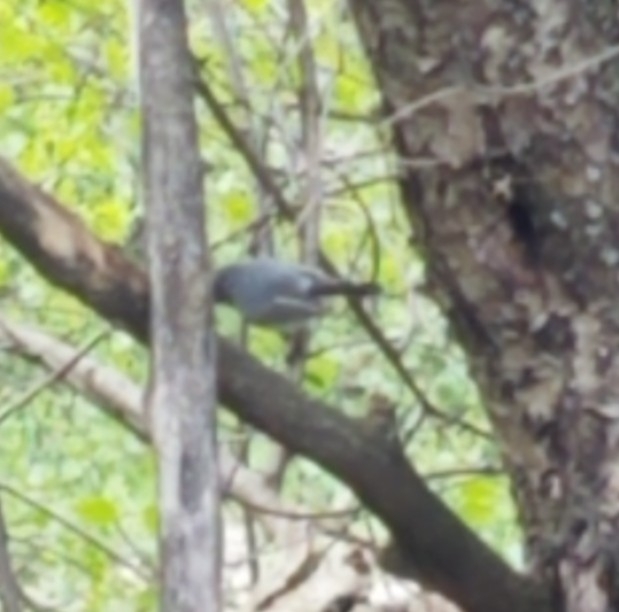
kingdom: Animalia
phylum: Chordata
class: Aves
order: Passeriformes
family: Polioptilidae
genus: Polioptila
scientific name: Polioptila caerulea
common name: Blue-gray gnatcatcher
